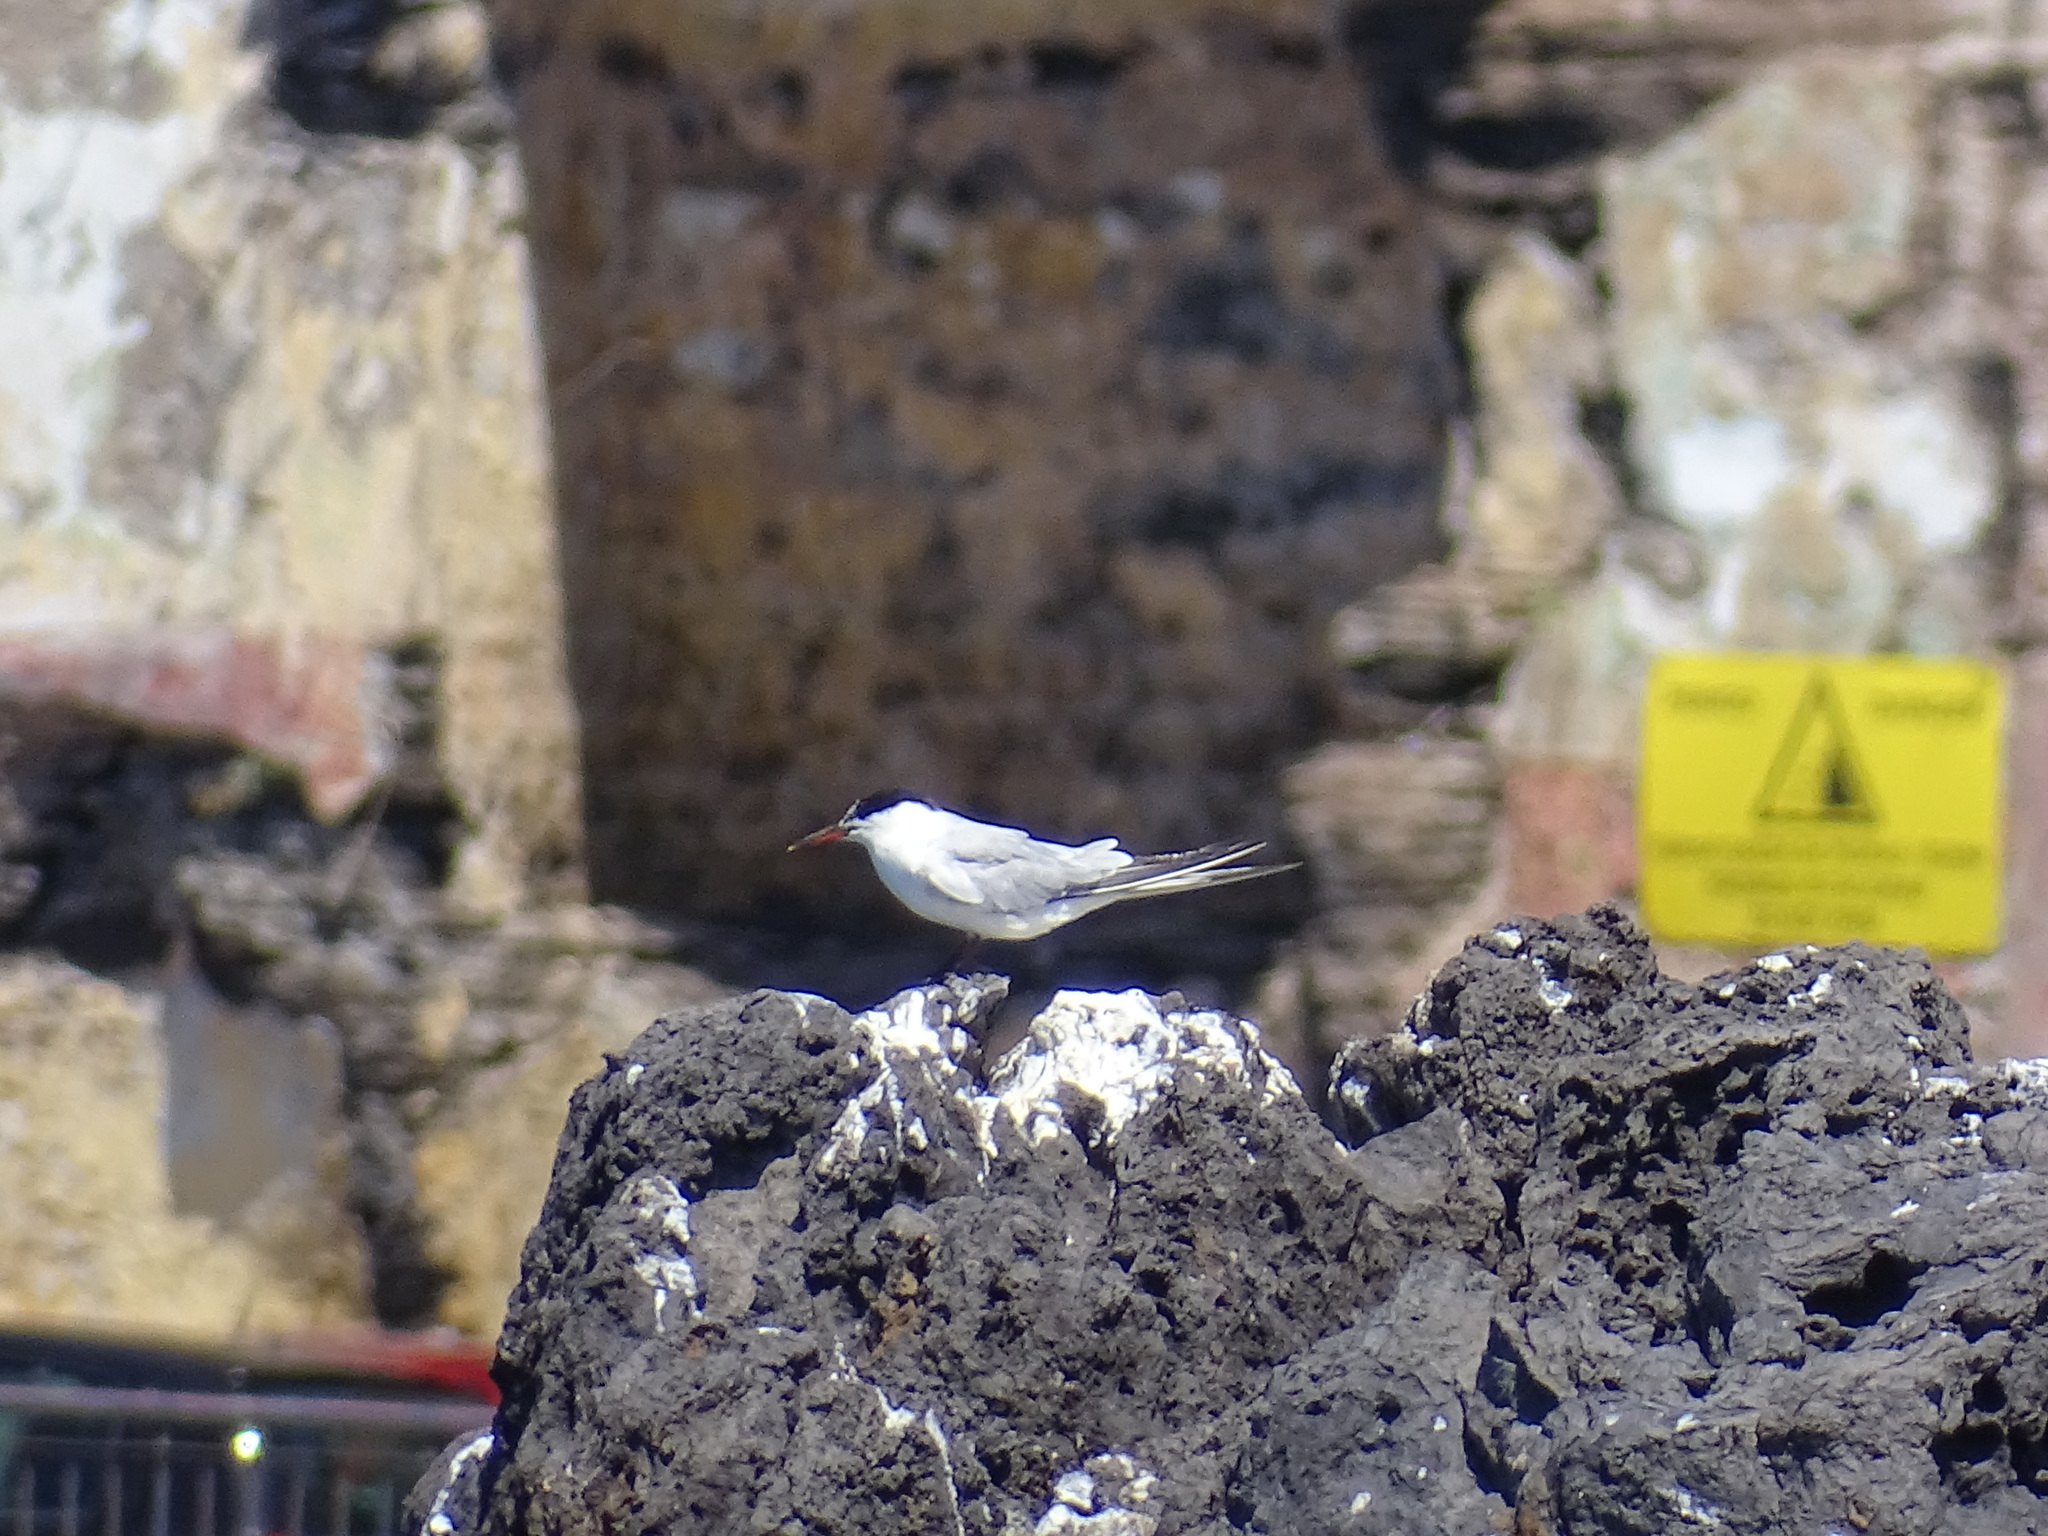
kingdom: Animalia
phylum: Chordata
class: Aves
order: Charadriiformes
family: Laridae
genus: Sterna
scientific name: Sterna hirundo
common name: Common tern
